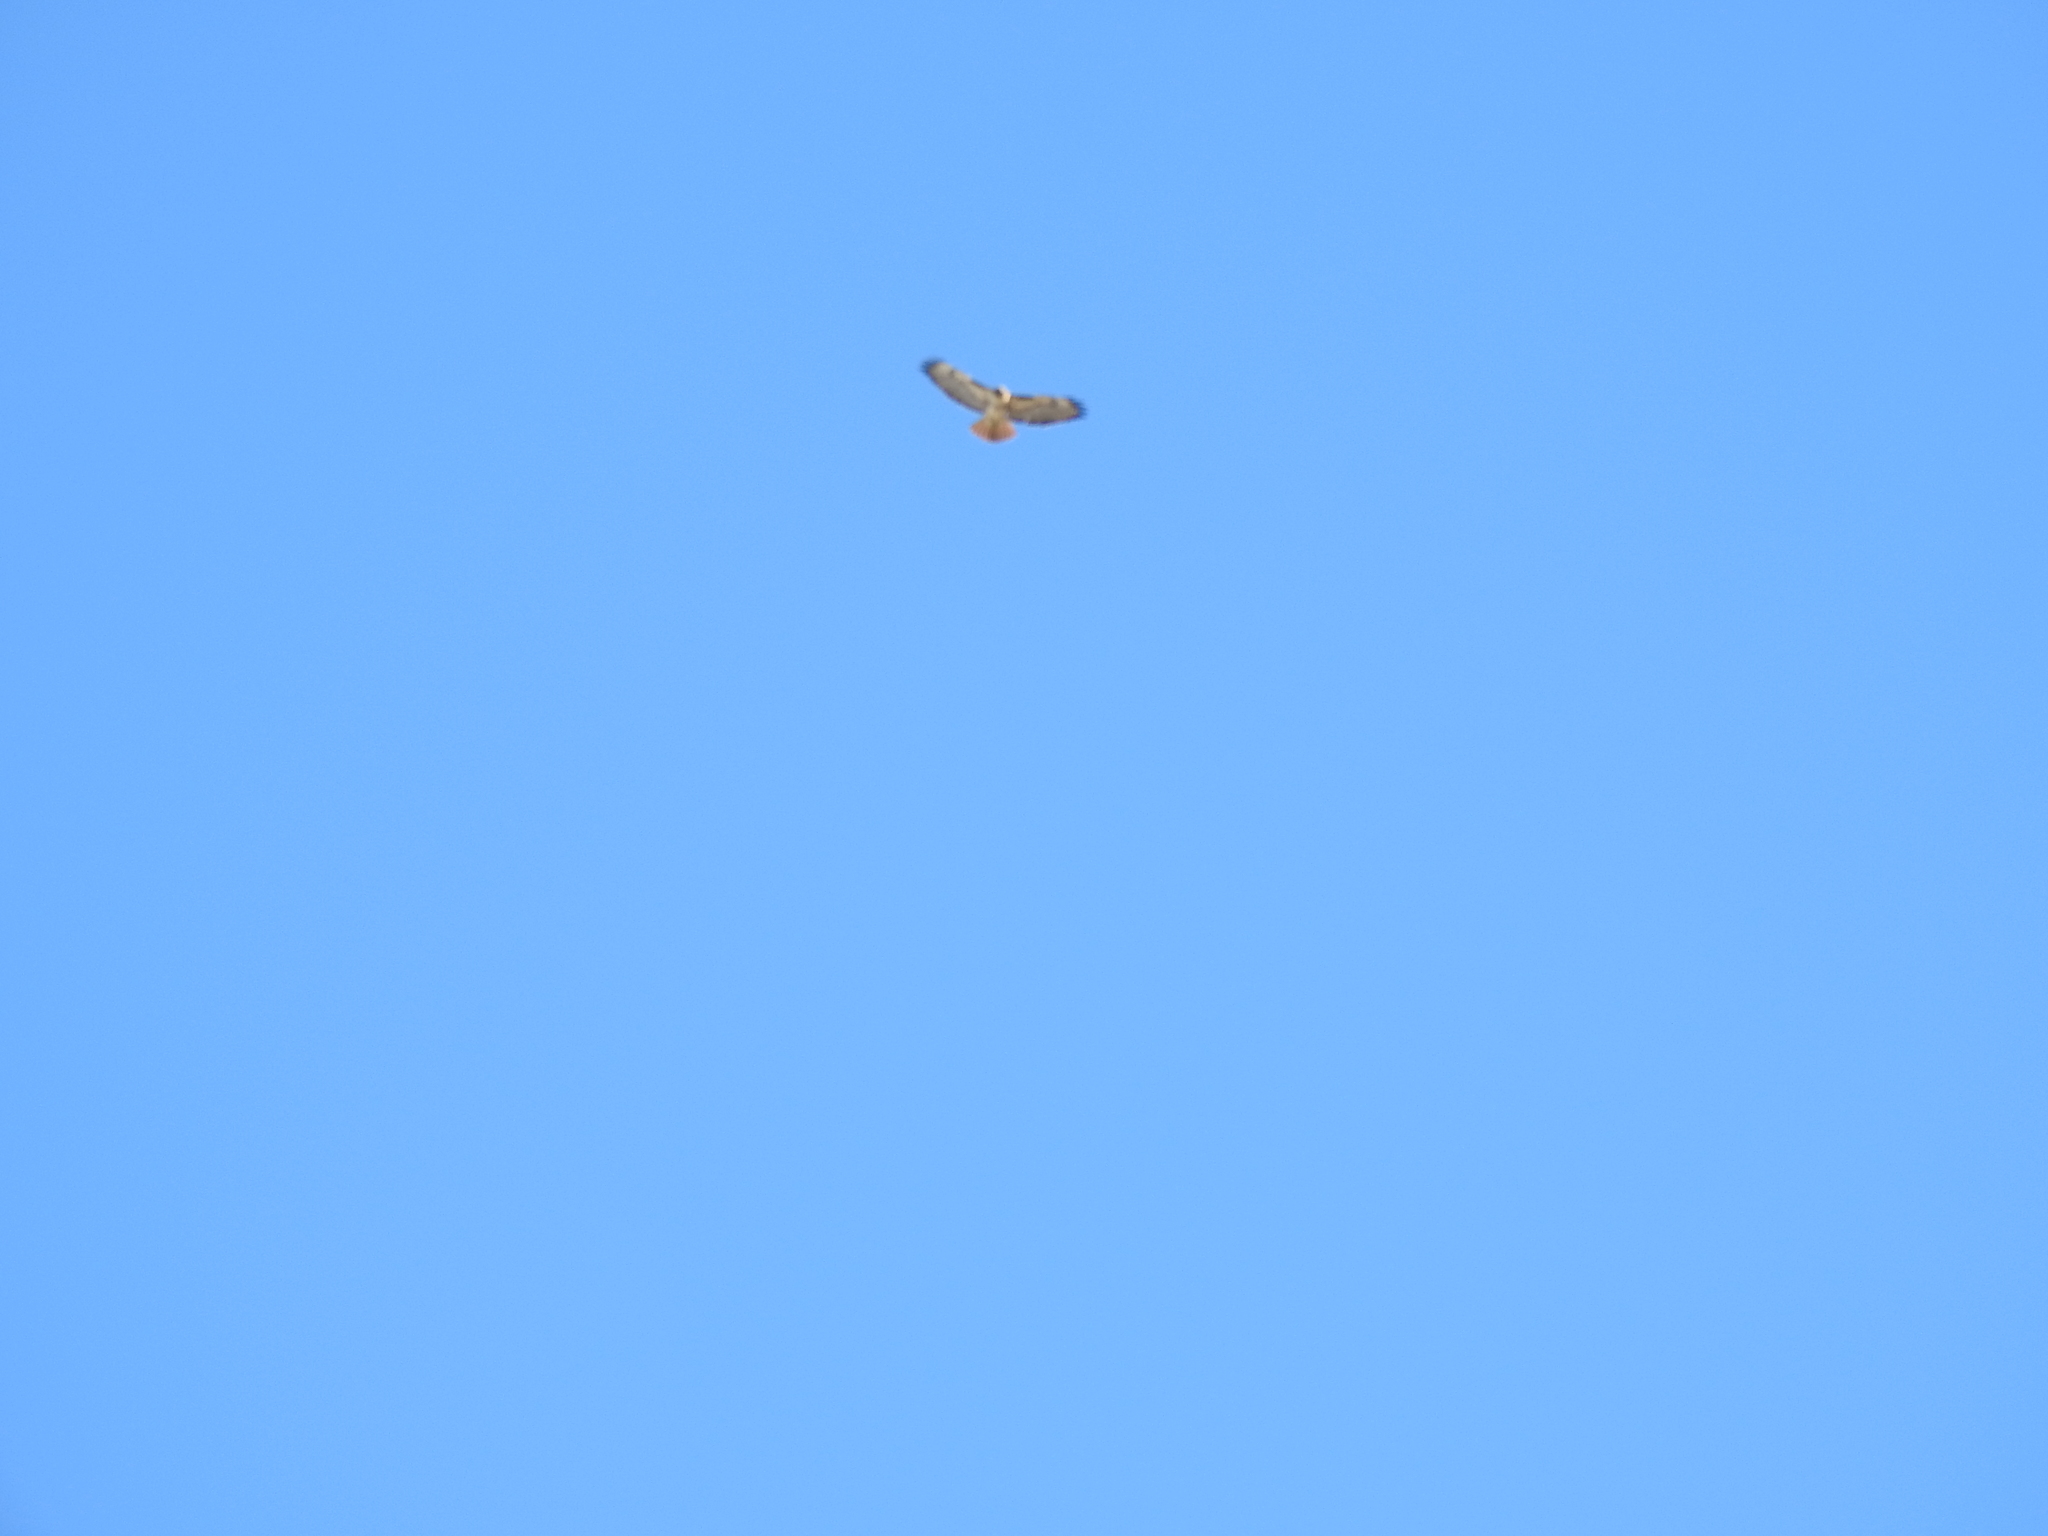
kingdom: Animalia
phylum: Chordata
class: Aves
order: Accipitriformes
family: Accipitridae
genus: Buteo
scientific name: Buteo jamaicensis
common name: Red-tailed hawk
